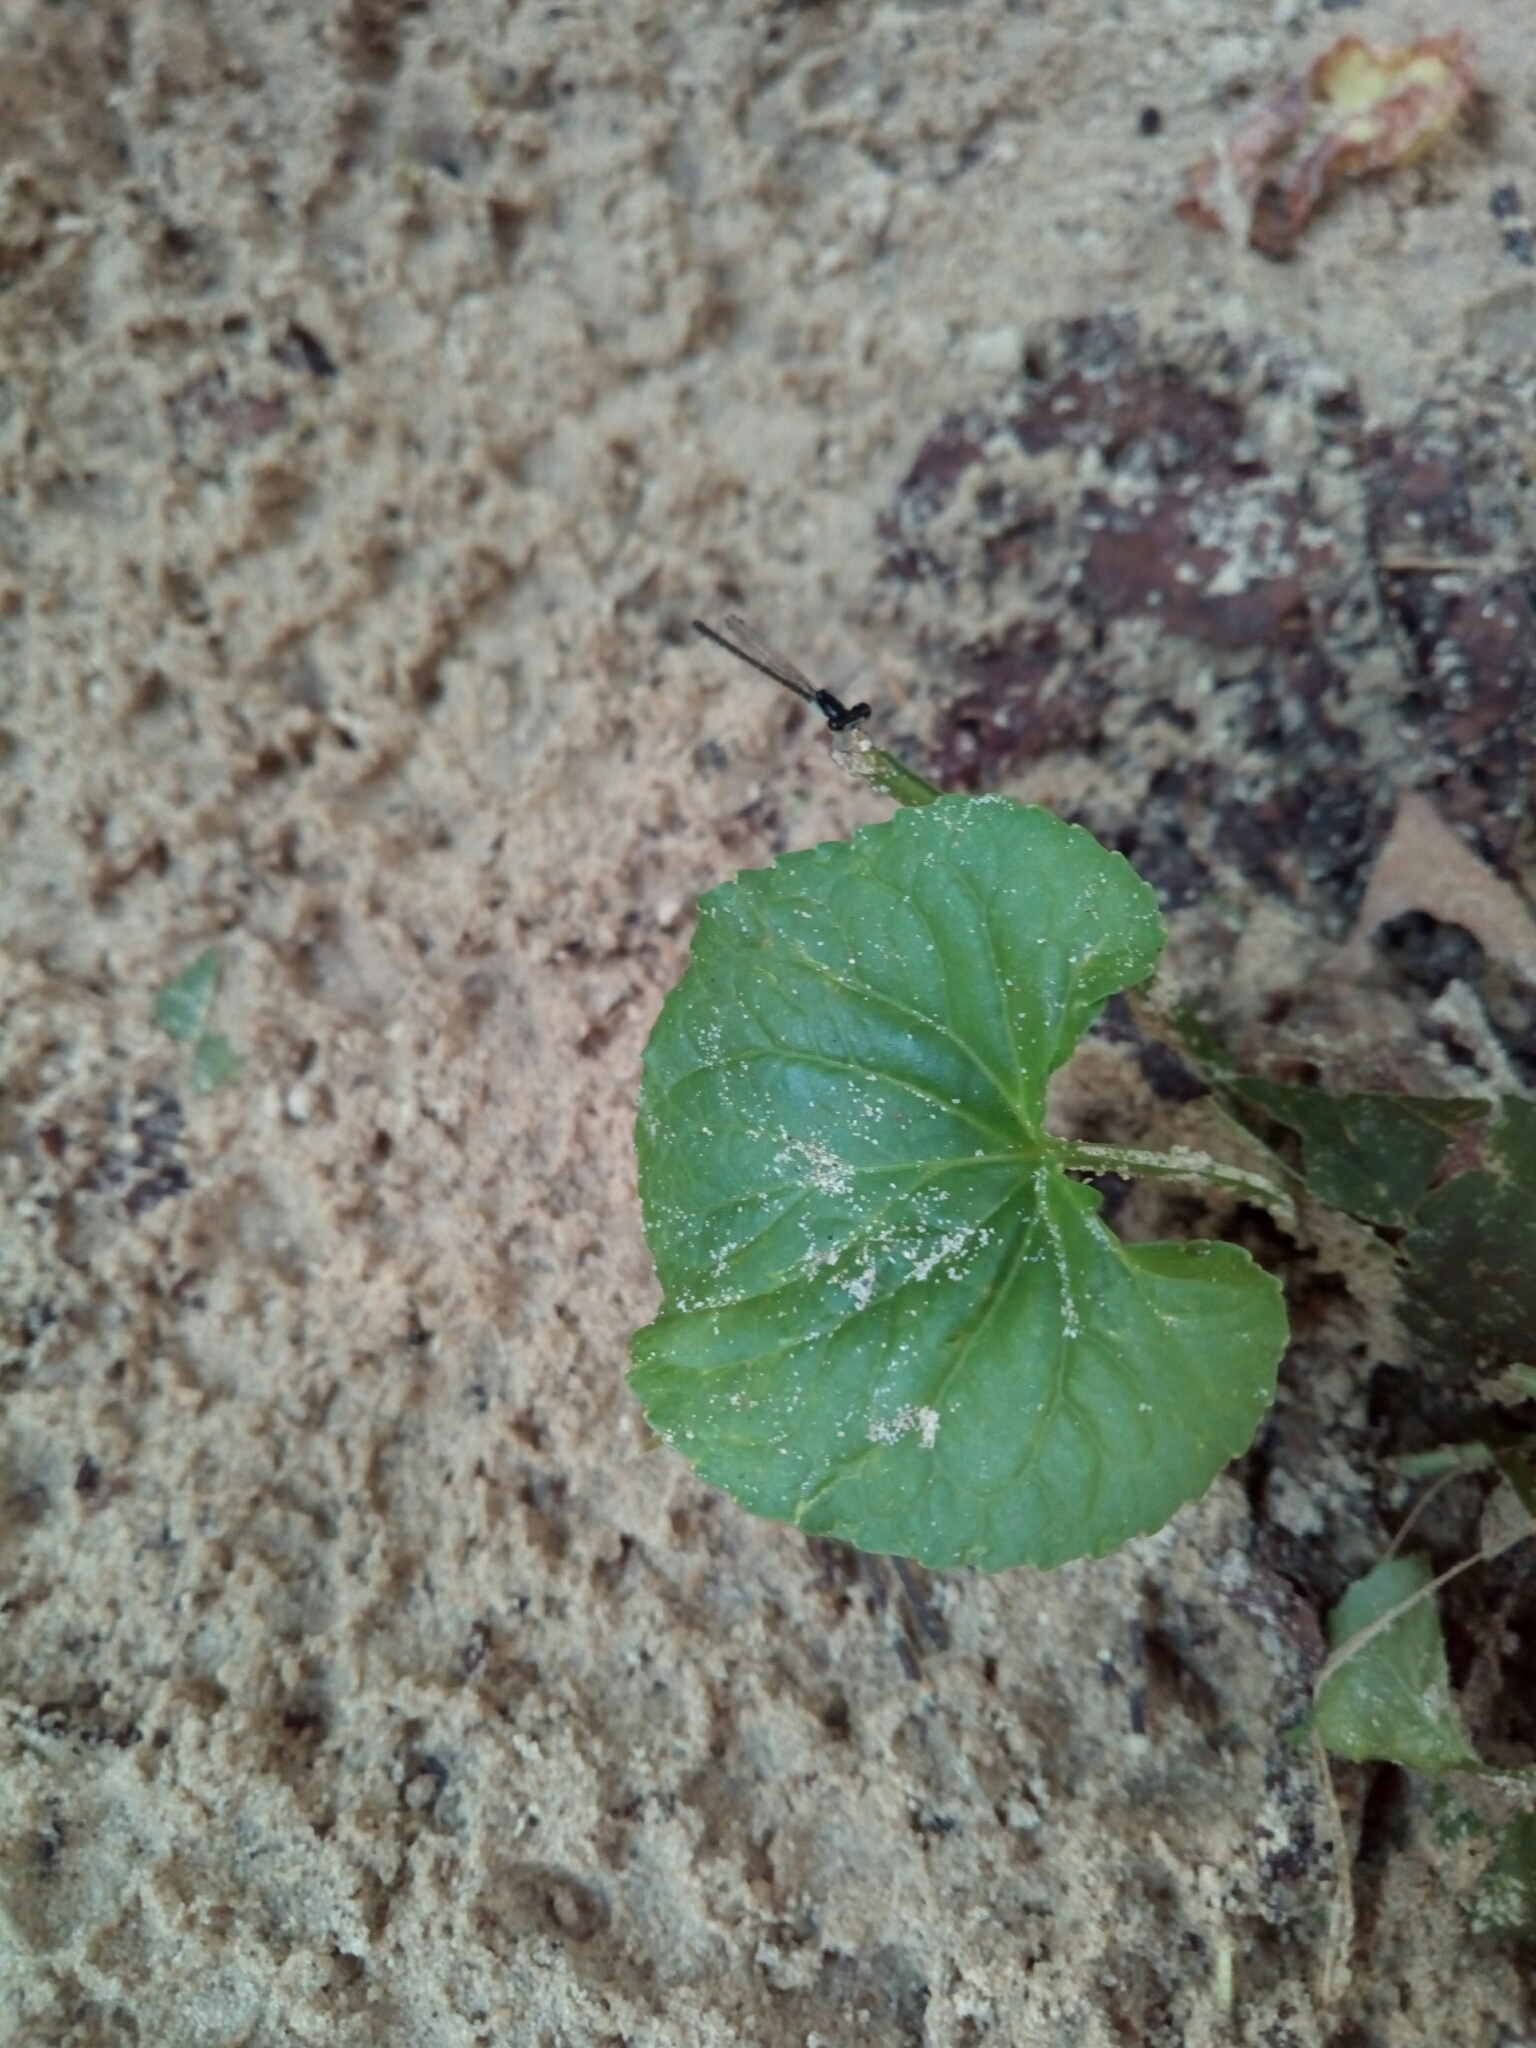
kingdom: Animalia
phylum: Arthropoda
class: Insecta
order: Odonata
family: Coenagrionidae
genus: Ischnura
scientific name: Ischnura posita
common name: Fragile forktail
